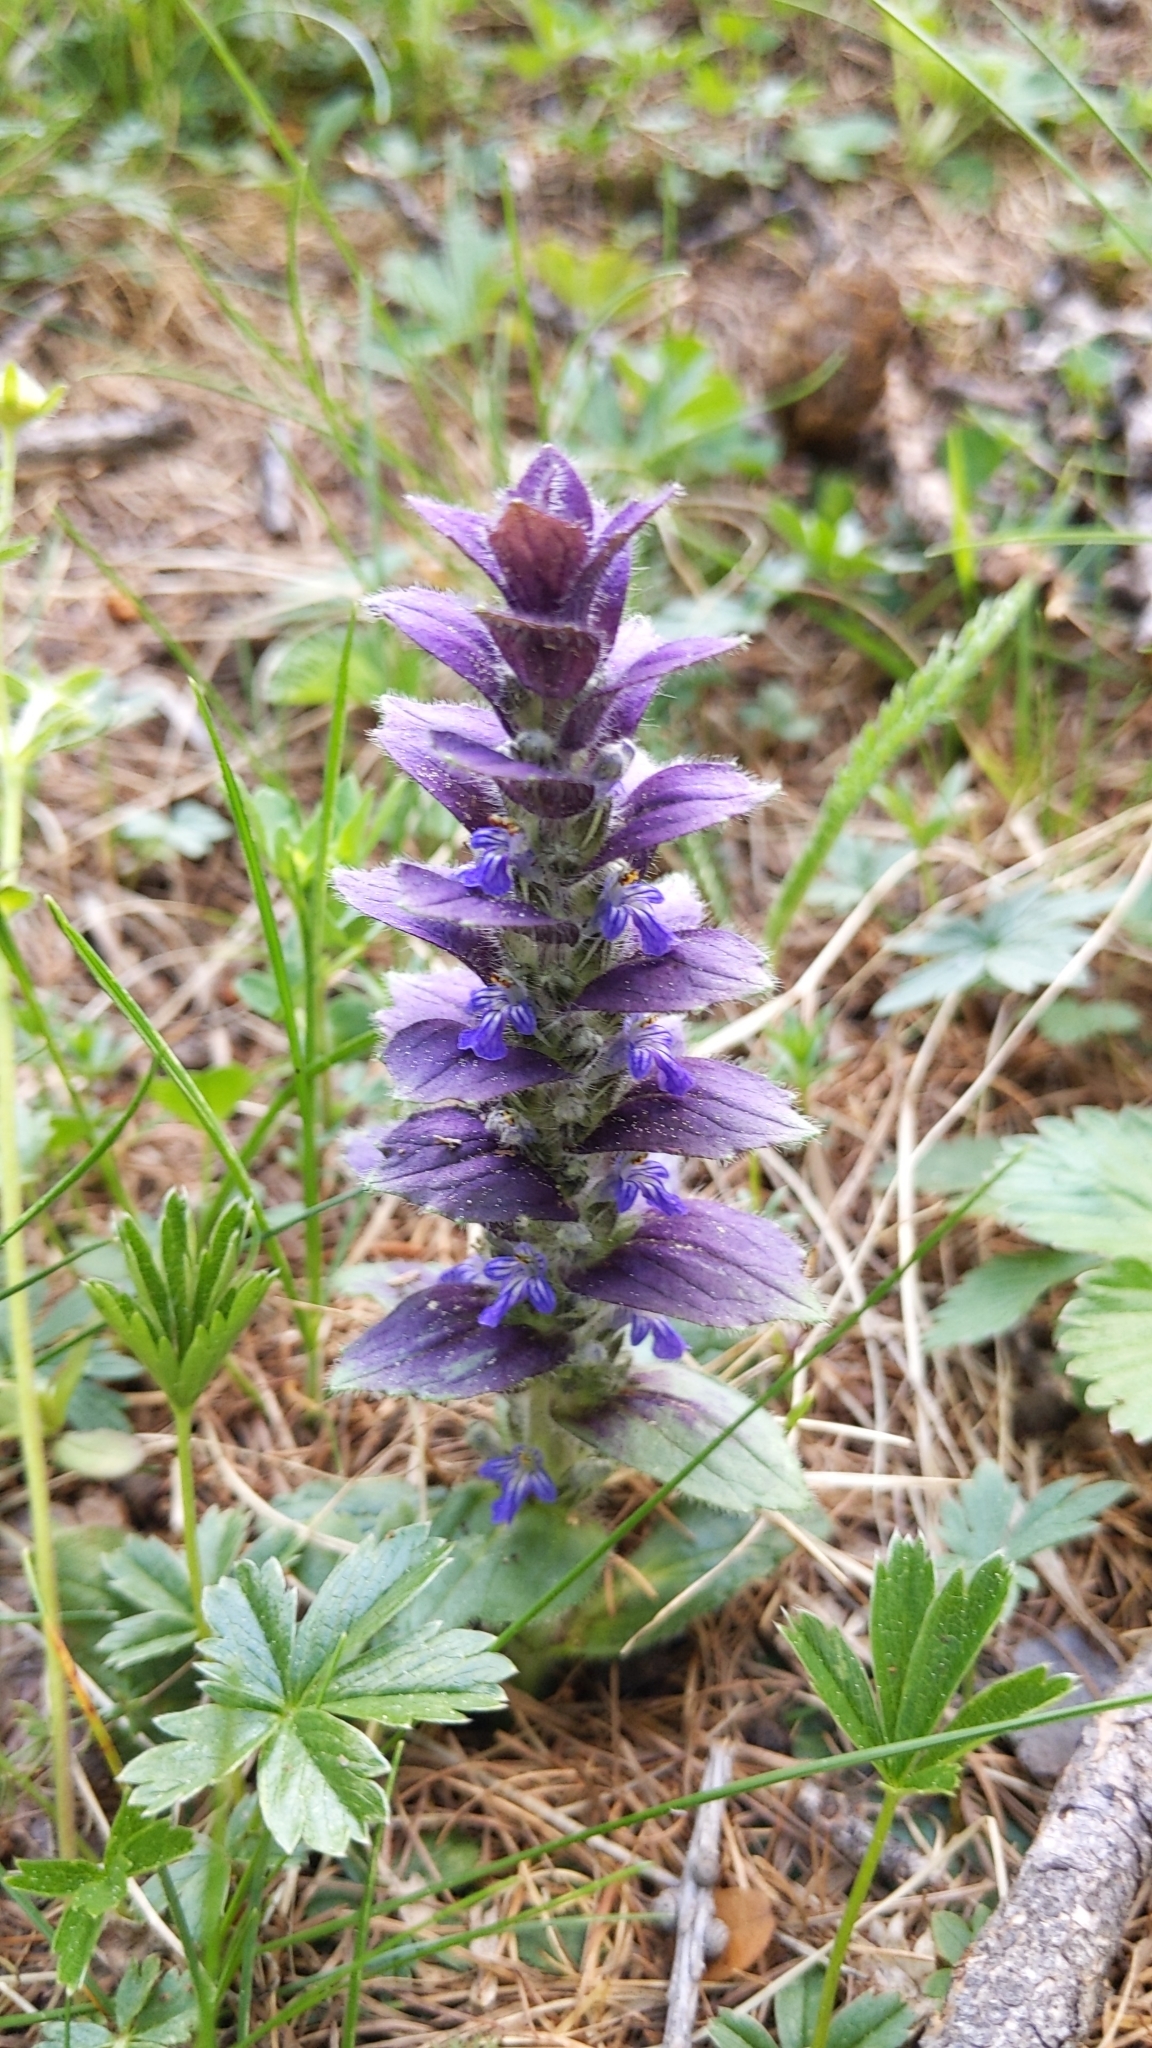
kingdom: Plantae
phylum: Tracheophyta
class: Magnoliopsida
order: Lamiales
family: Lamiaceae
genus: Ajuga
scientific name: Ajuga pyramidalis
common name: Pyramid bugle
